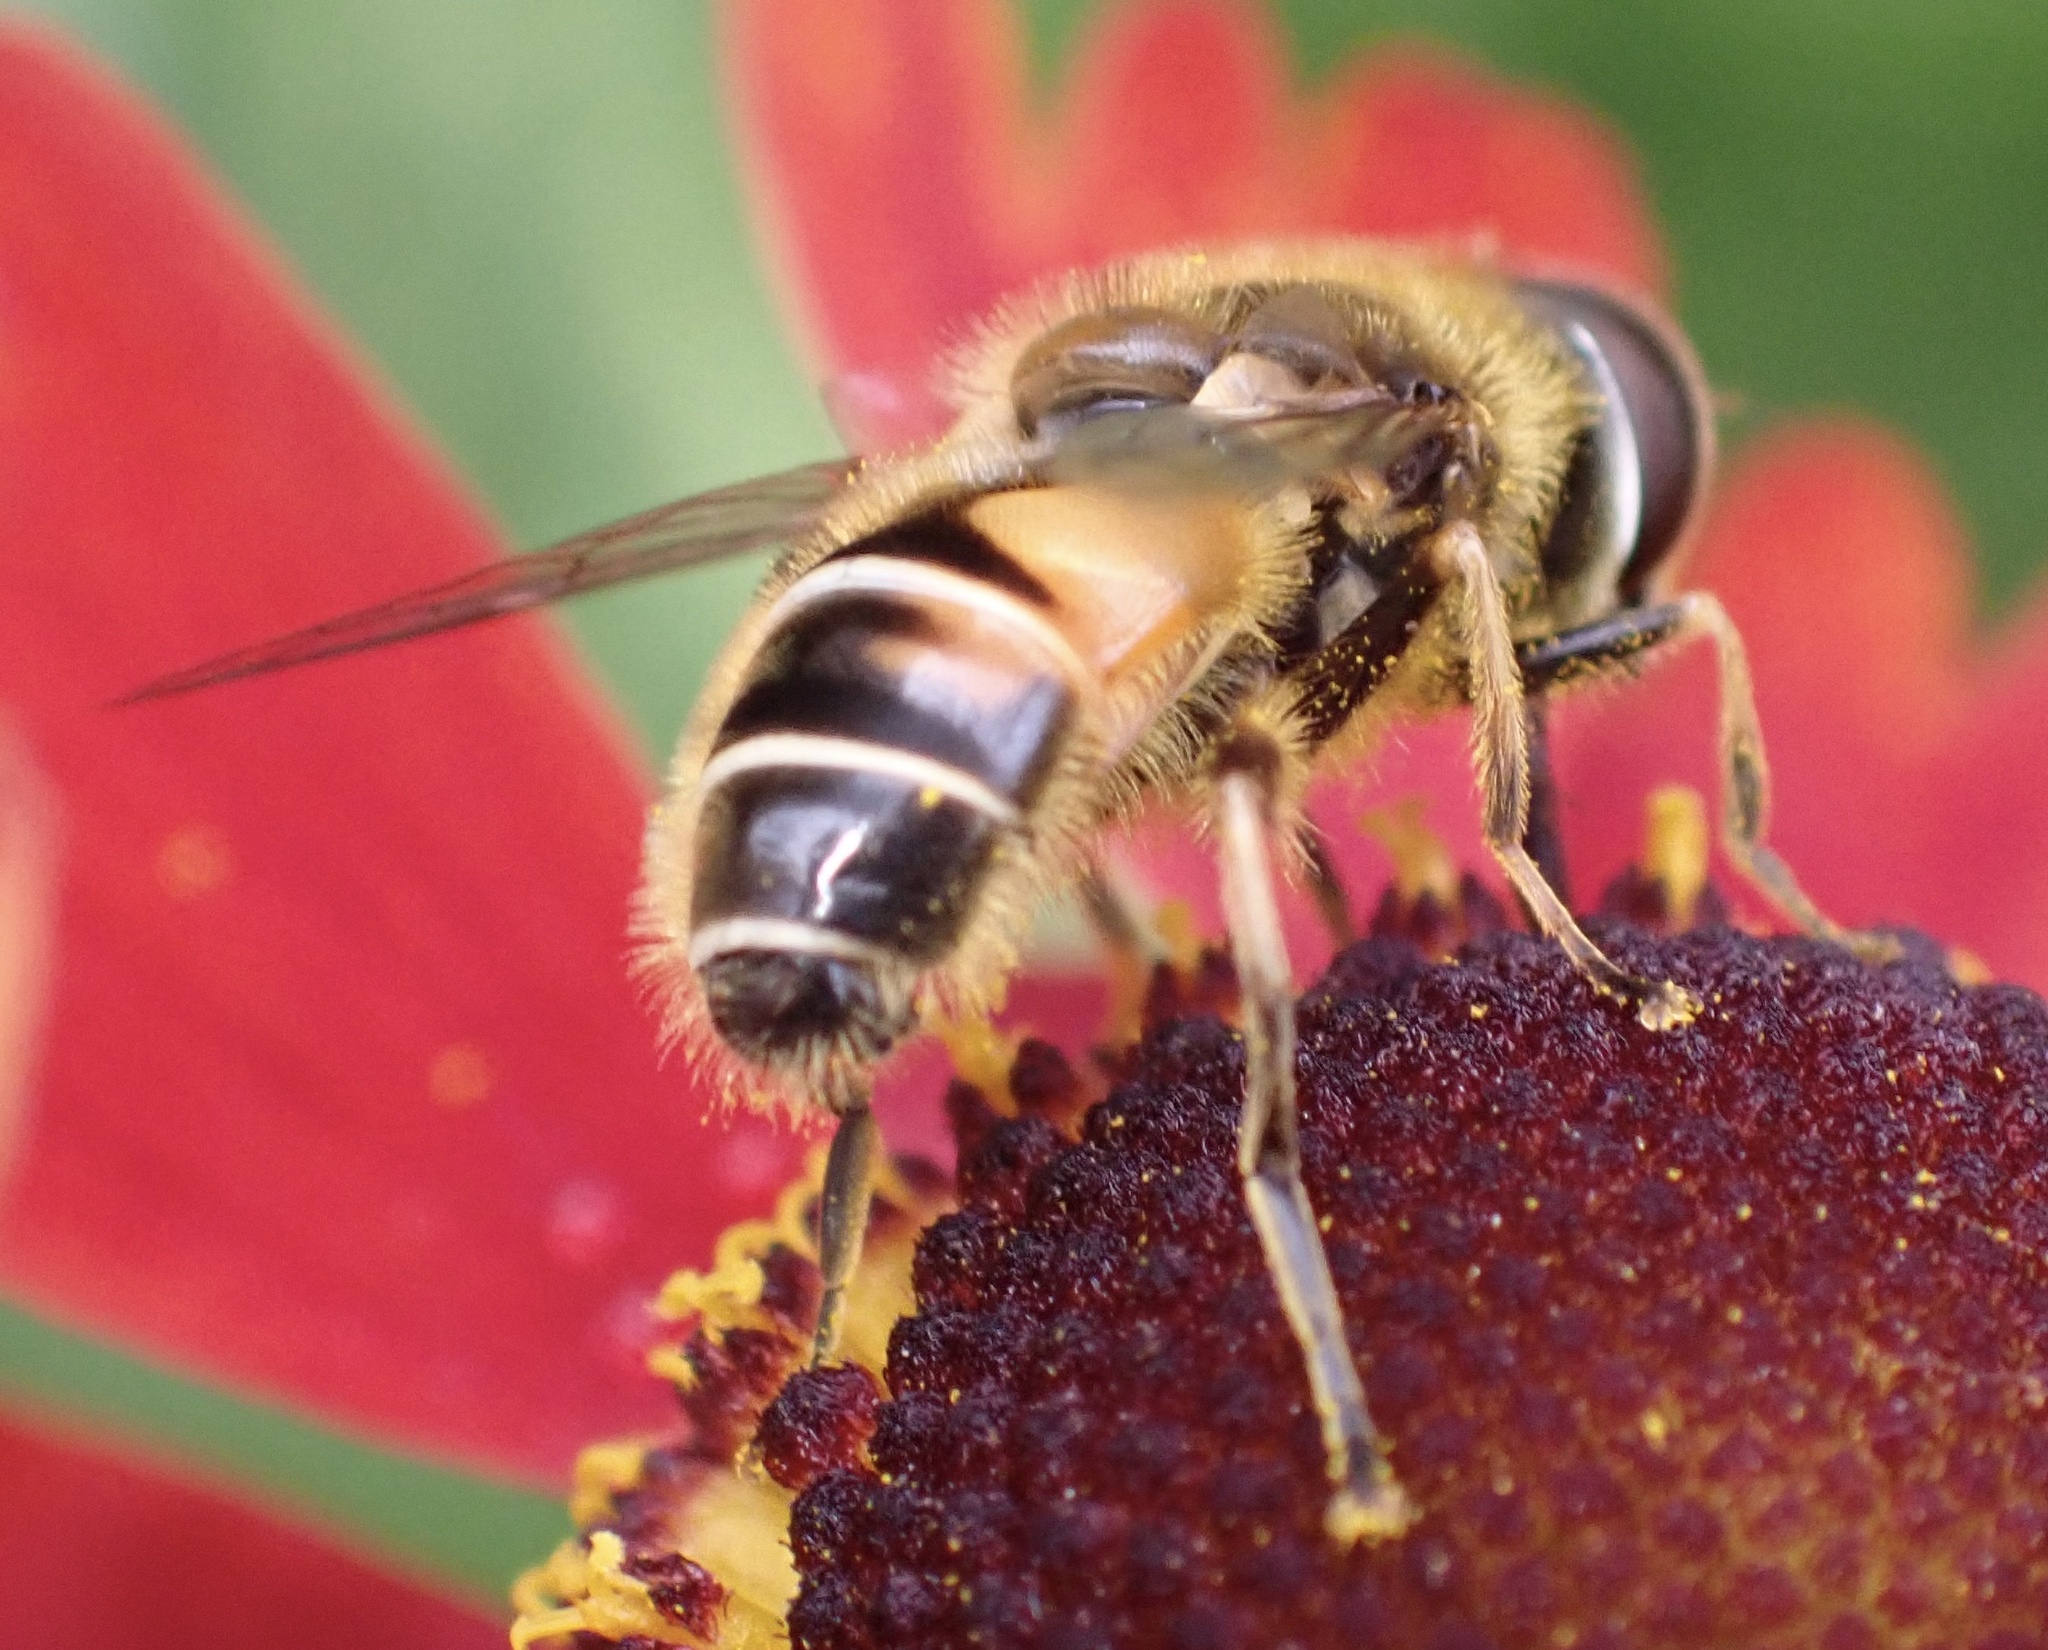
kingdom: Animalia
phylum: Arthropoda
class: Insecta
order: Diptera
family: Syrphidae
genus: Eristalis
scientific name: Eristalis nemorum
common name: Orange-spined drone fly
